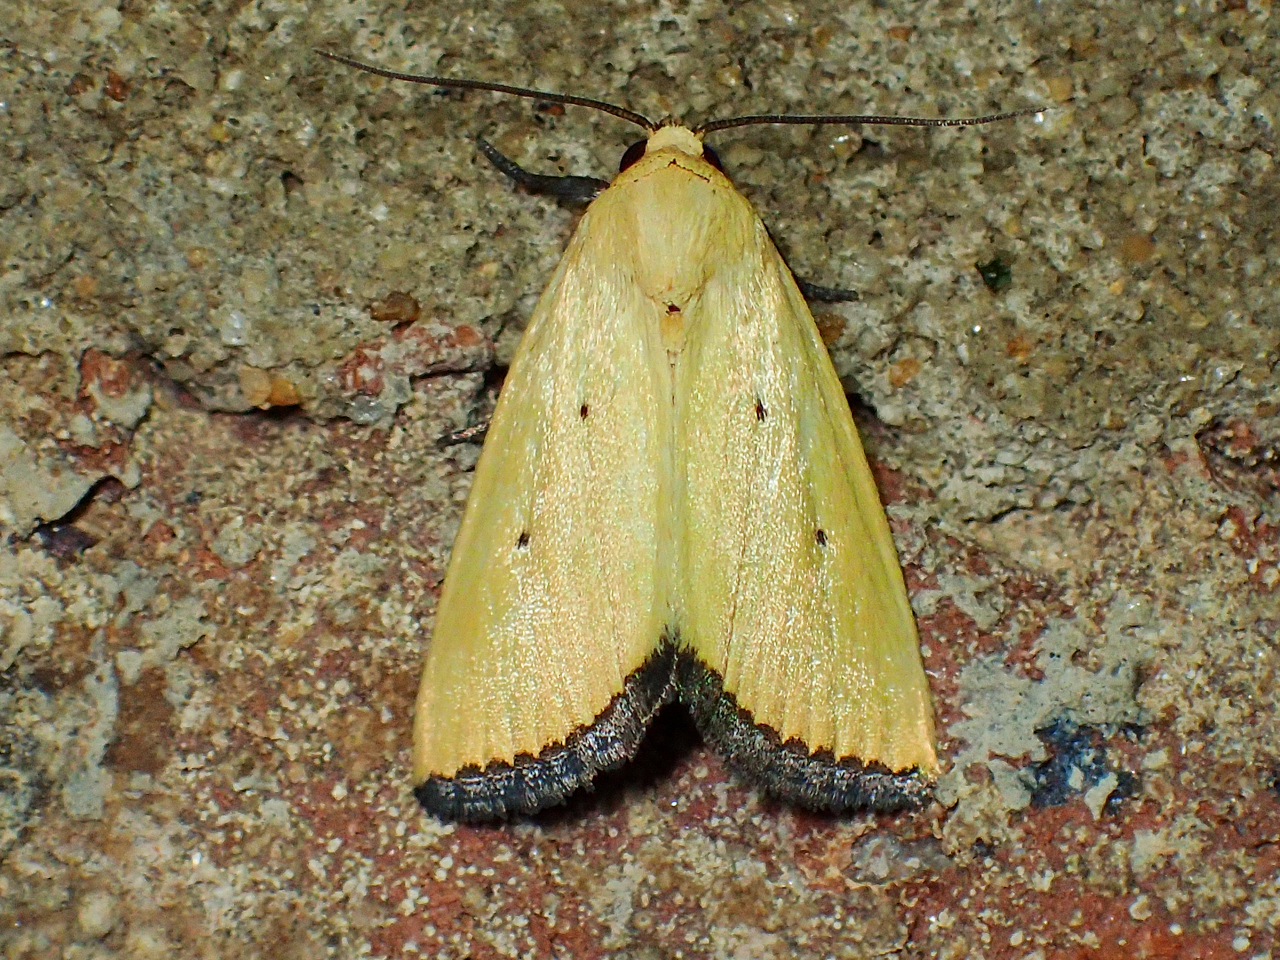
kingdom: Animalia
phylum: Arthropoda
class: Insecta
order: Lepidoptera
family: Noctuidae
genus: Marimatha
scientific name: Marimatha nigrofimbria
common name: Black-bordered lemon moth
